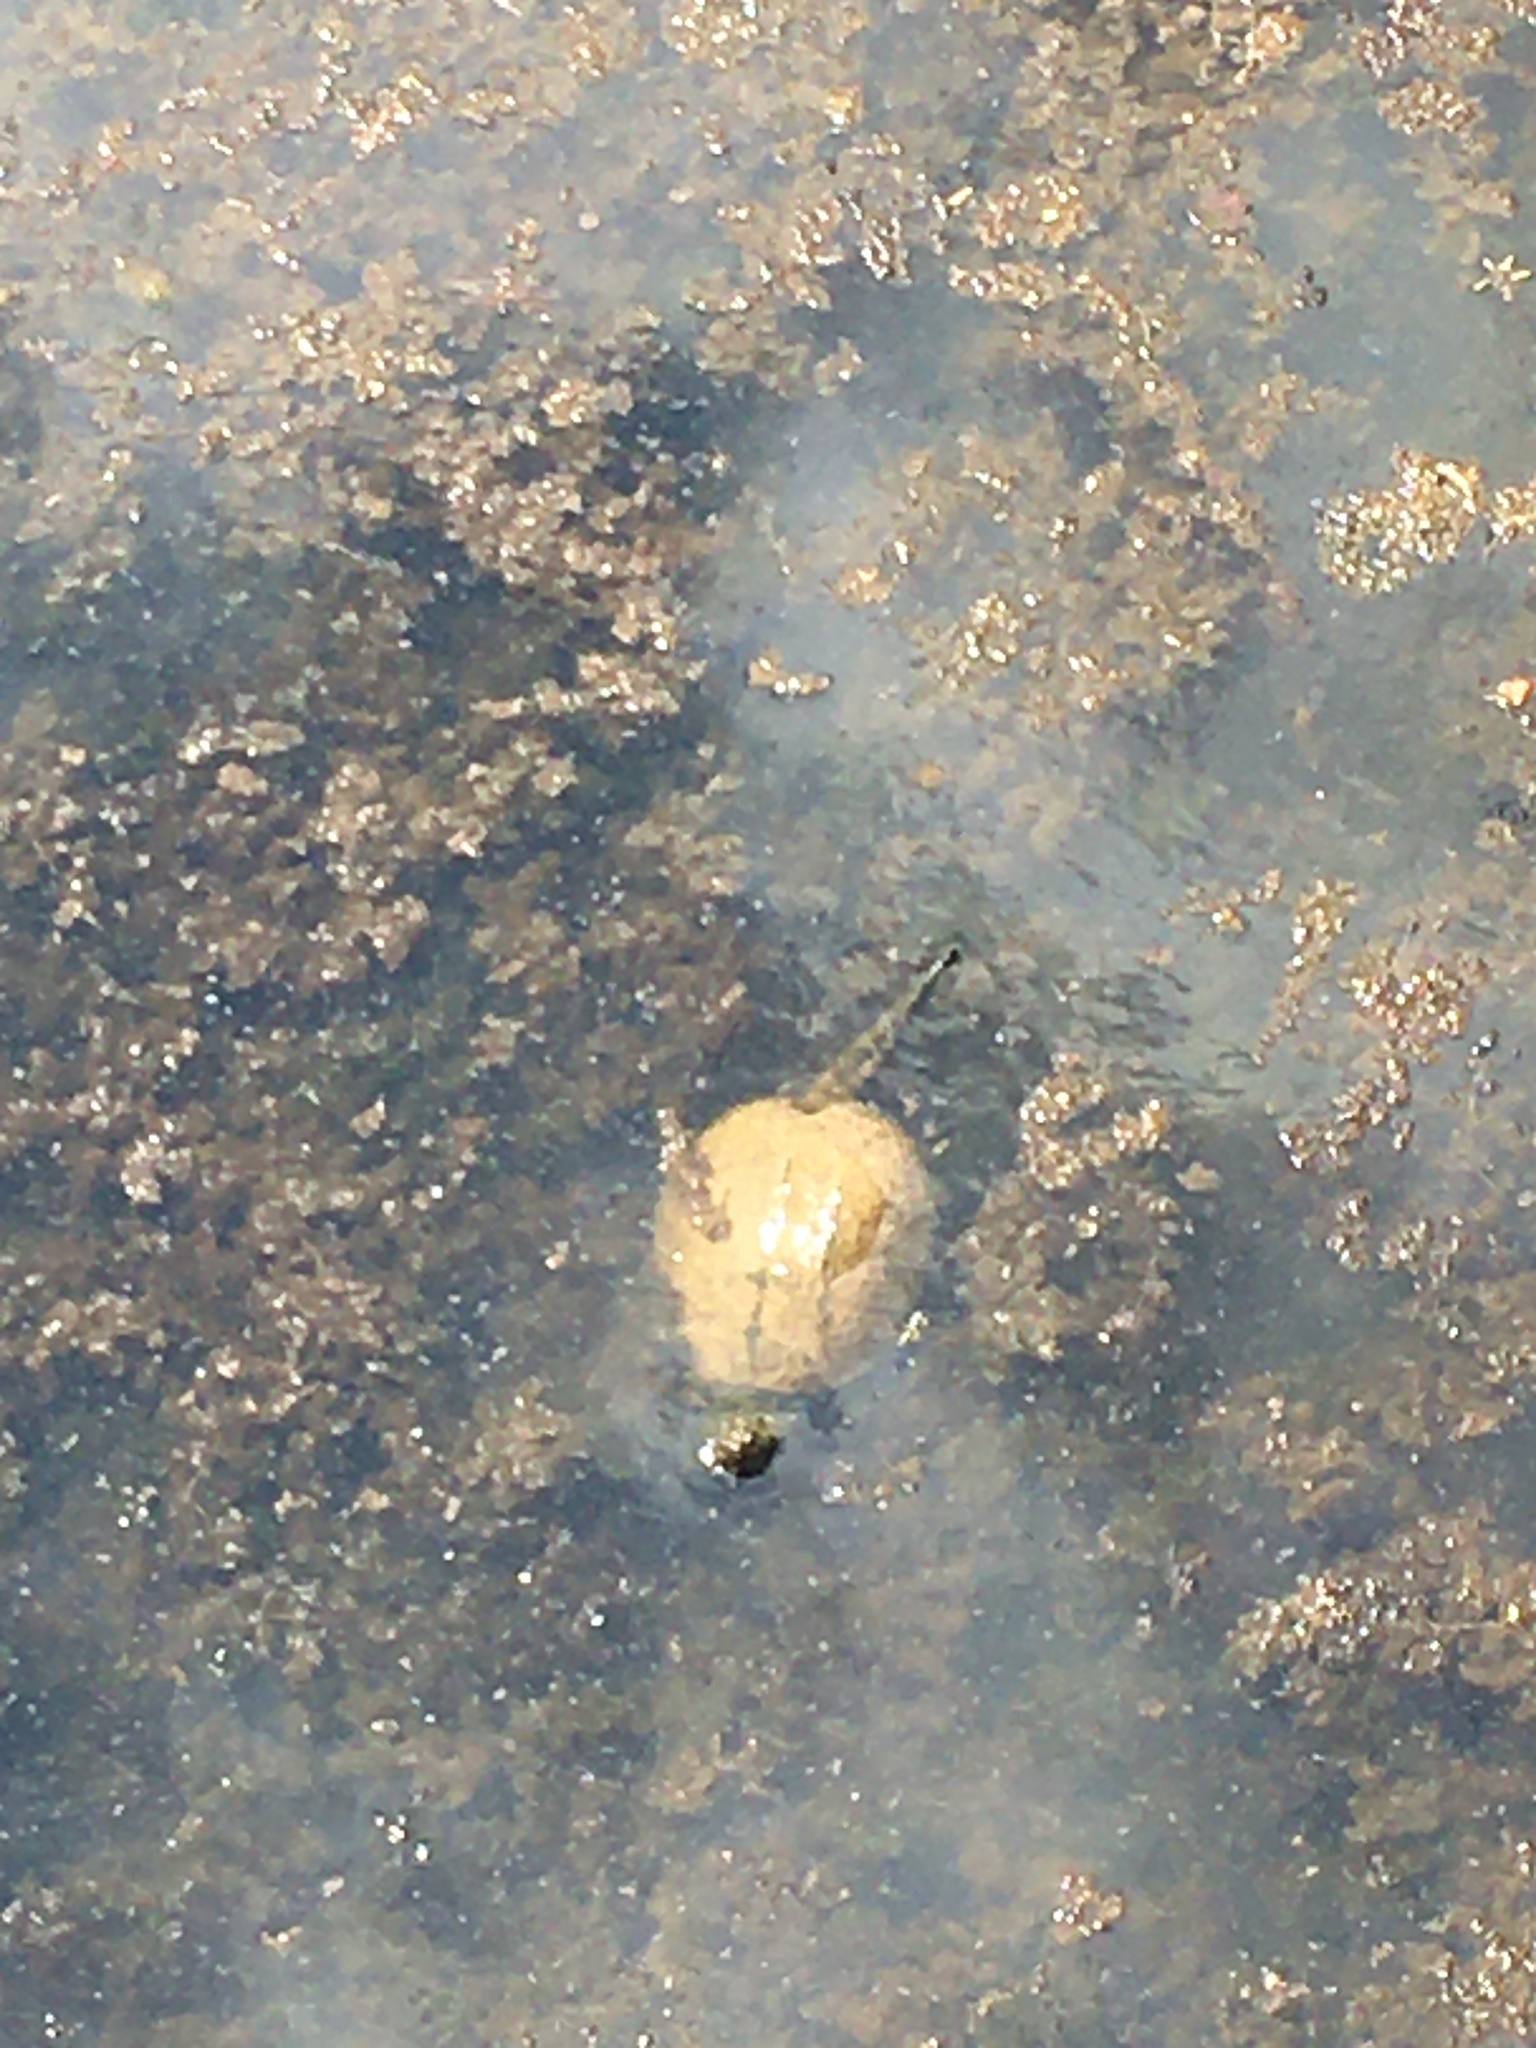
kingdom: Animalia
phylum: Chordata
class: Testudines
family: Chelydridae
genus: Chelydra
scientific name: Chelydra serpentina
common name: Common snapping turtle
